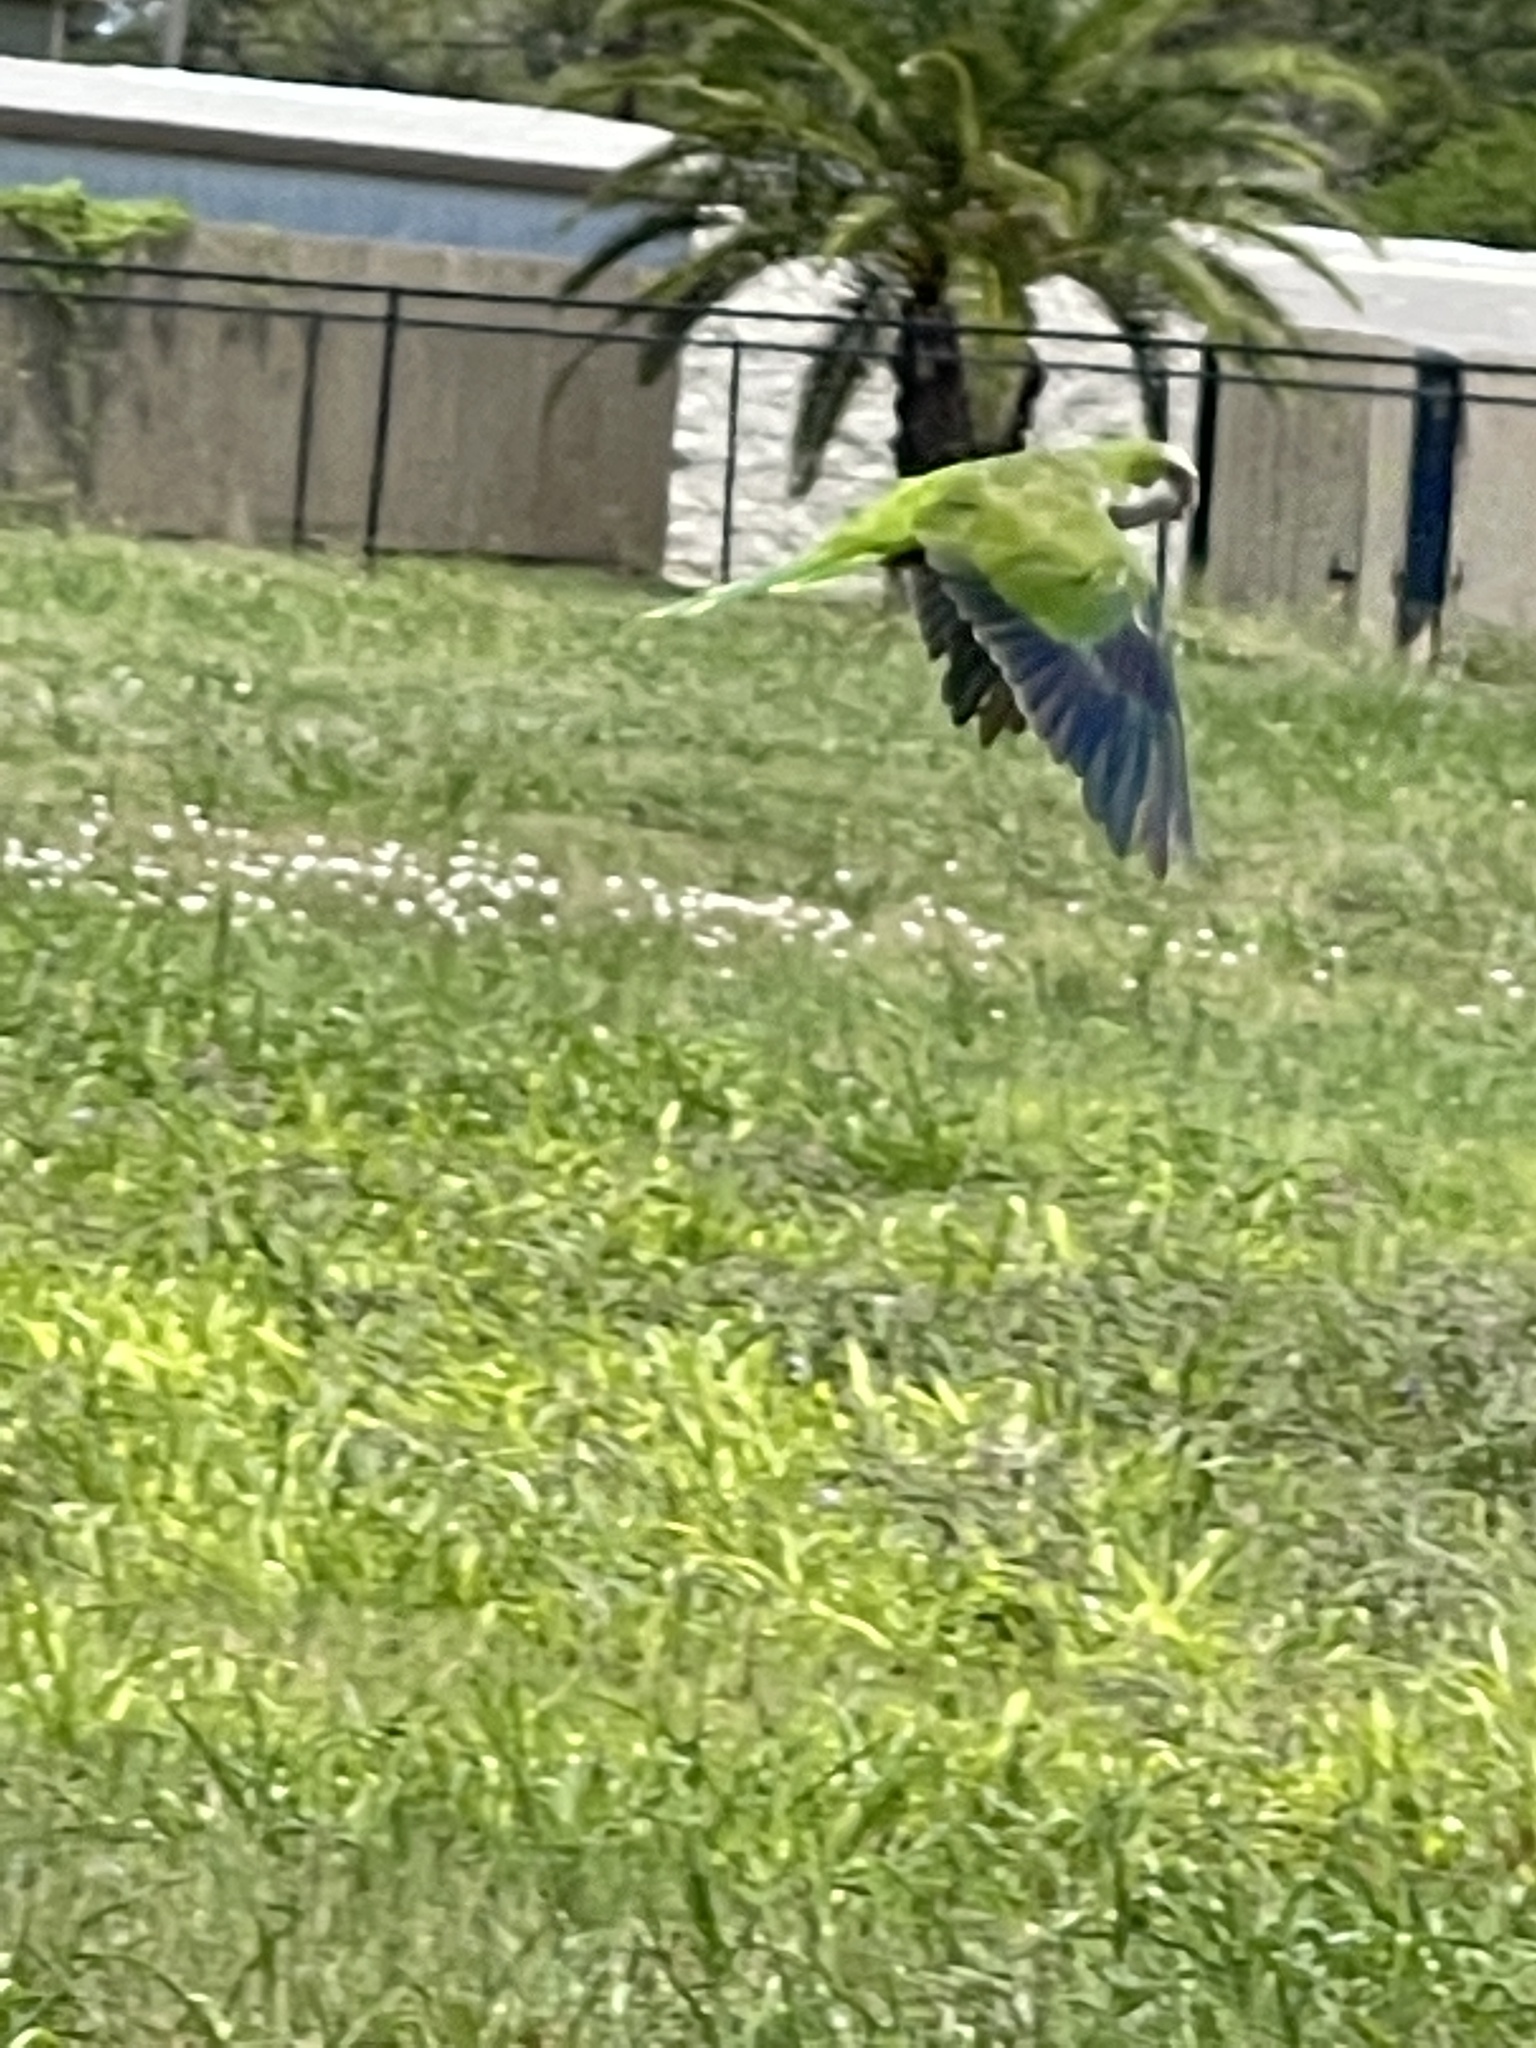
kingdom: Animalia
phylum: Chordata
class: Aves
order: Psittaciformes
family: Psittacidae
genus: Myiopsitta
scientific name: Myiopsitta monachus
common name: Monk parakeet
